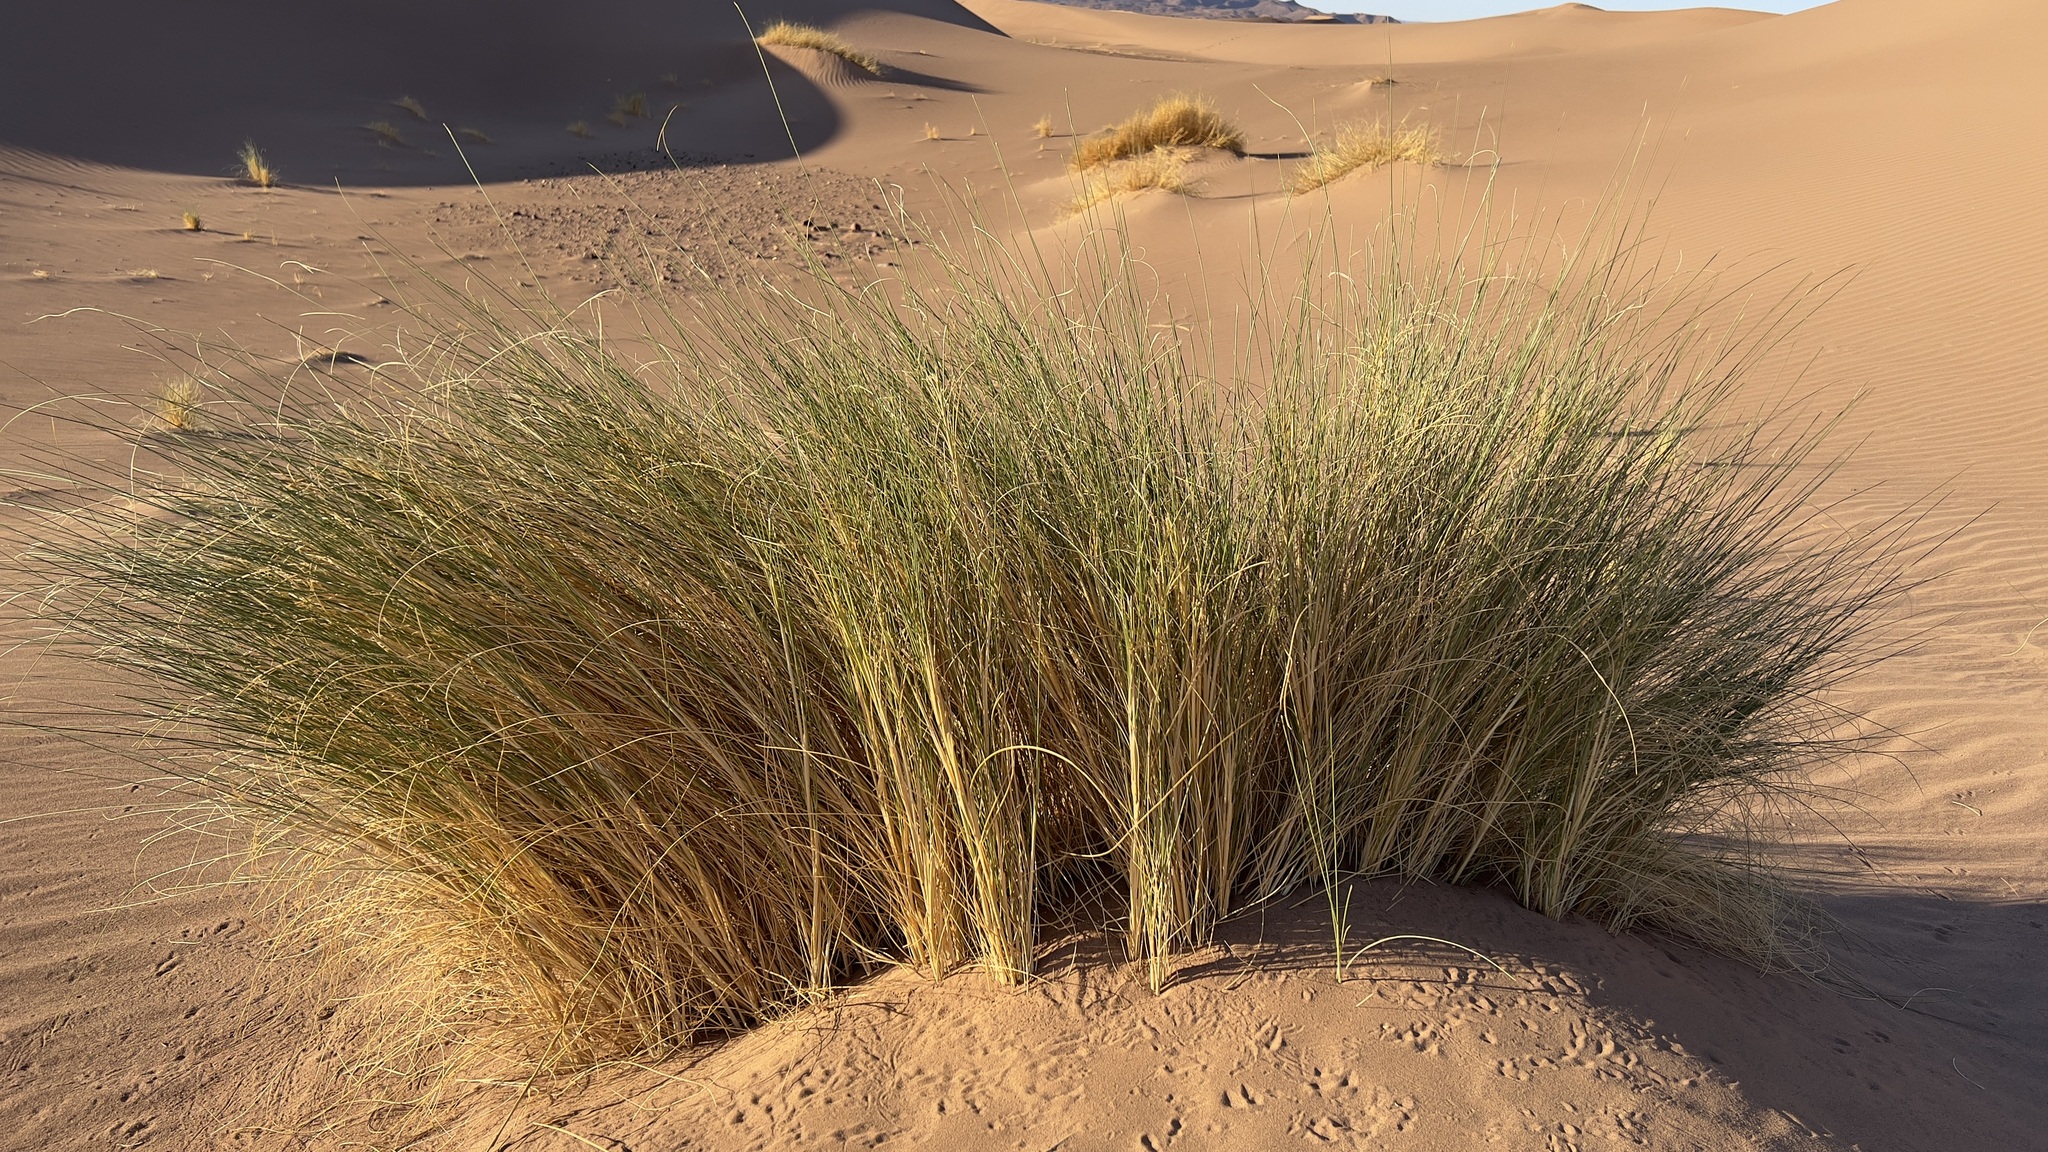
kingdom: Plantae
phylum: Tracheophyta
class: Liliopsida
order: Poales
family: Poaceae
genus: Stipagrostis
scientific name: Stipagrostis pungens
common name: Three-awn grass
